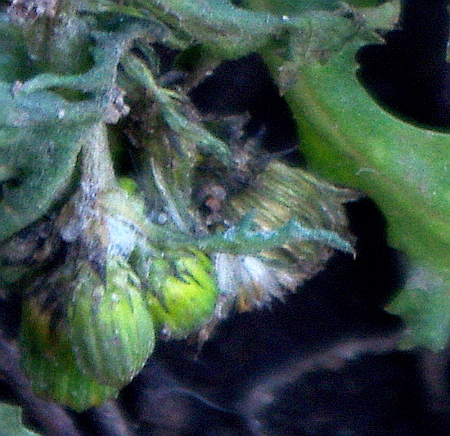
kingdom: Plantae
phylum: Tracheophyta
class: Magnoliopsida
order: Asterales
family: Asteraceae
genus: Senecio
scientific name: Senecio vulgaris
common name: Old-man-in-the-spring
